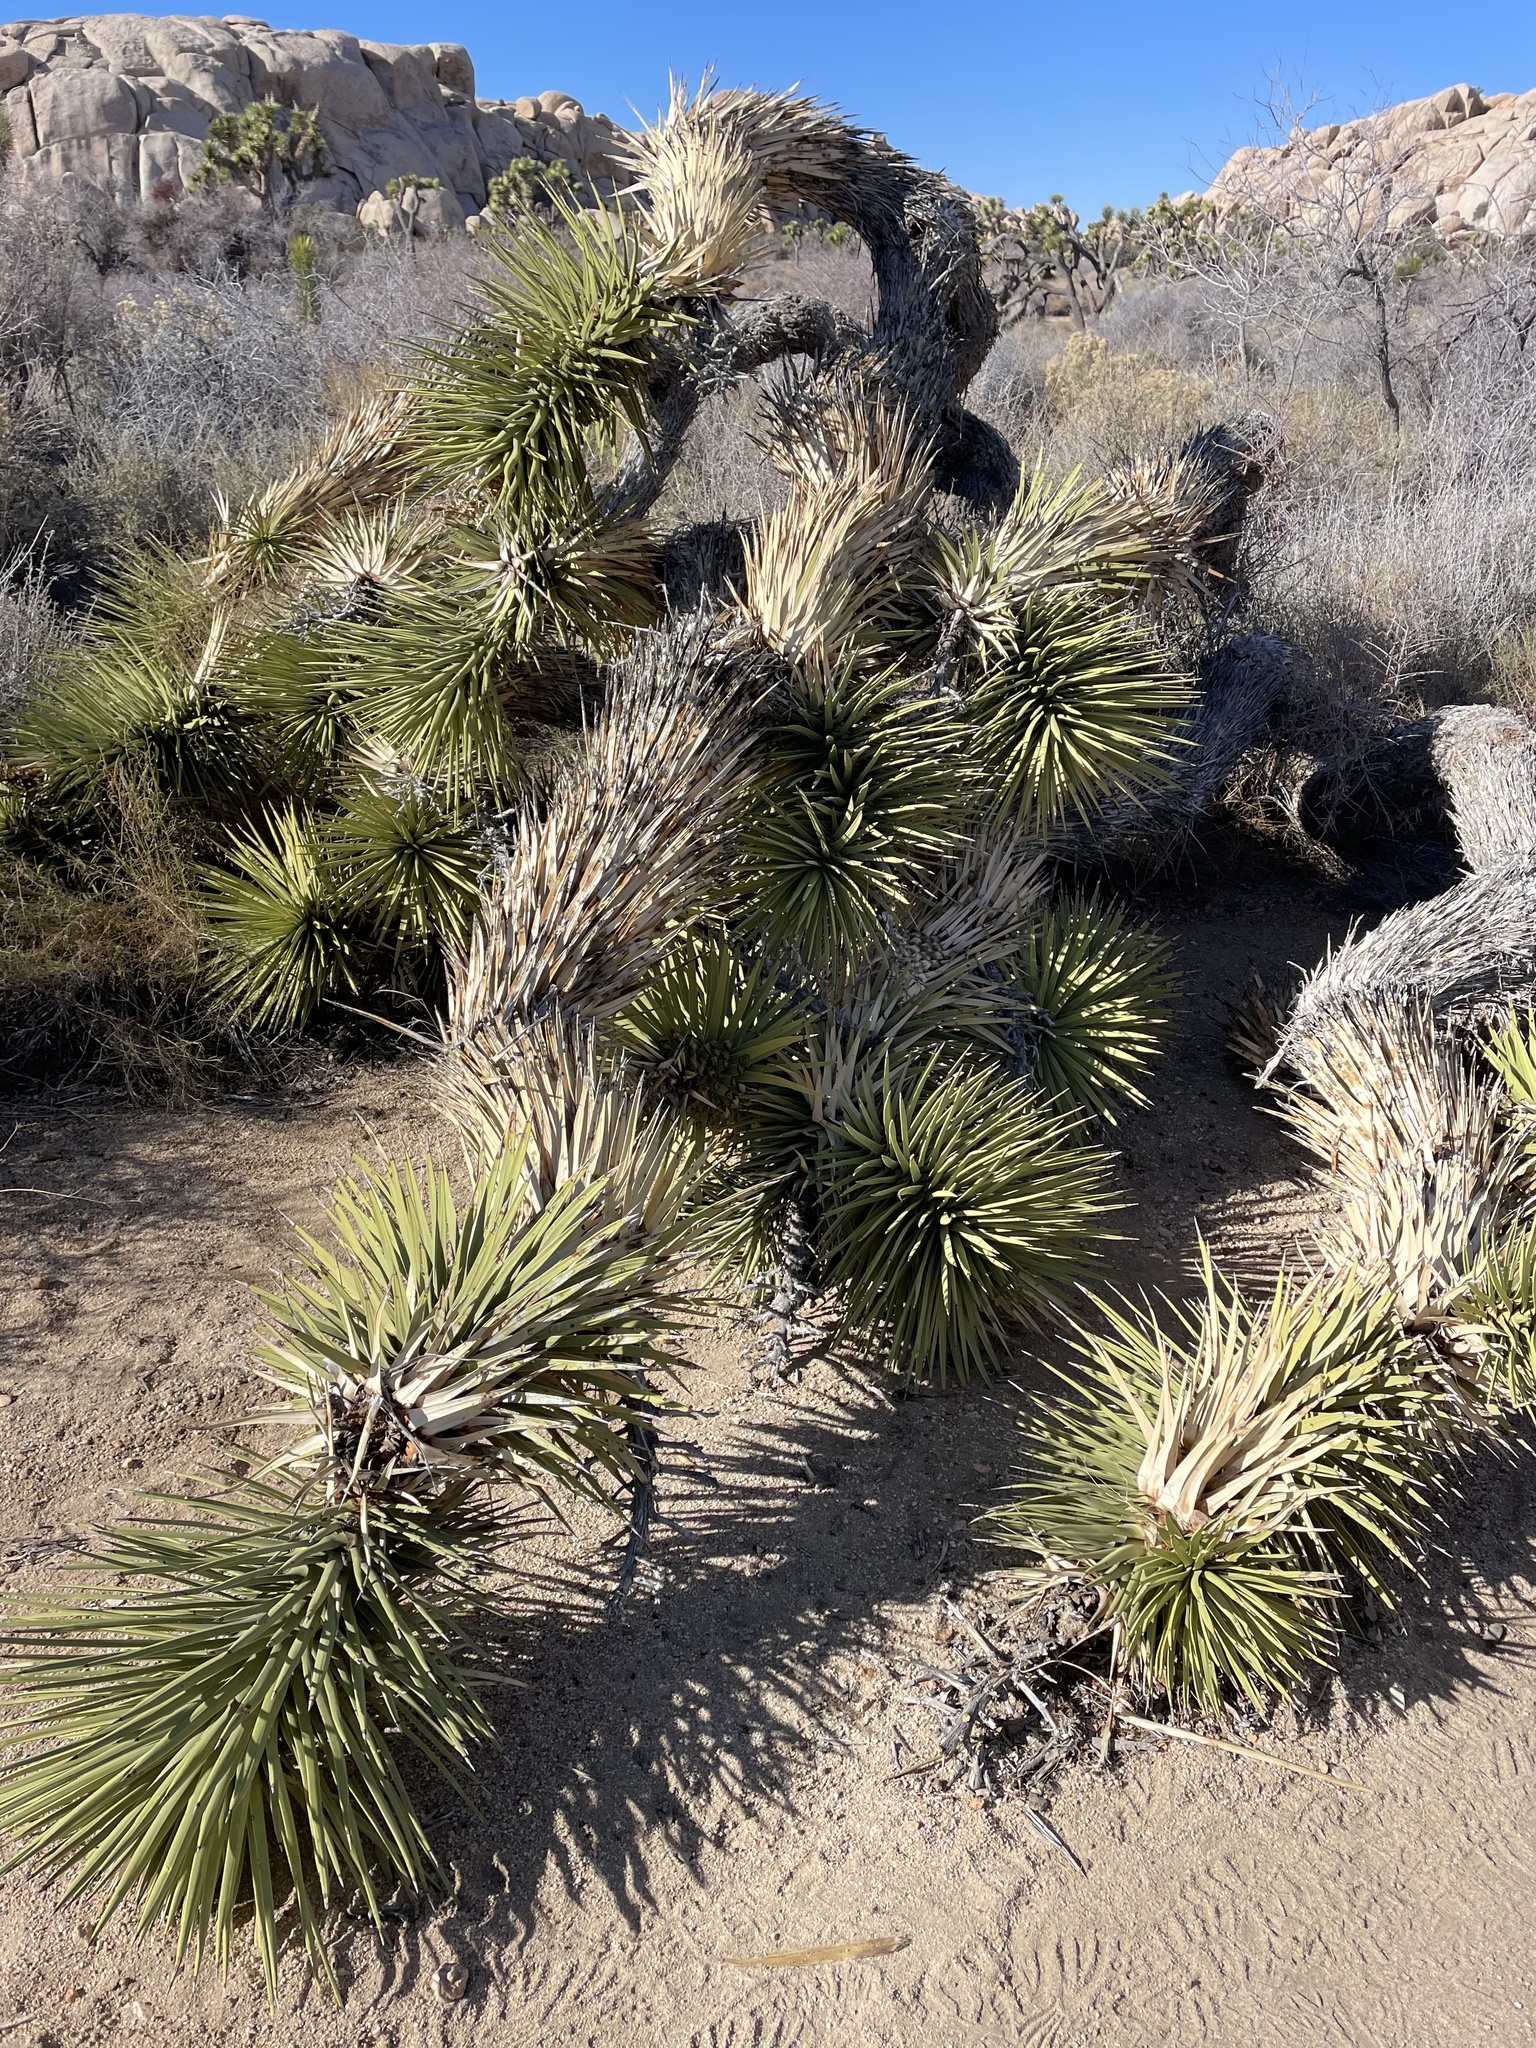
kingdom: Plantae
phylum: Tracheophyta
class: Liliopsida
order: Asparagales
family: Asparagaceae
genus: Yucca
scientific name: Yucca brevifolia
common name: Joshua tree
